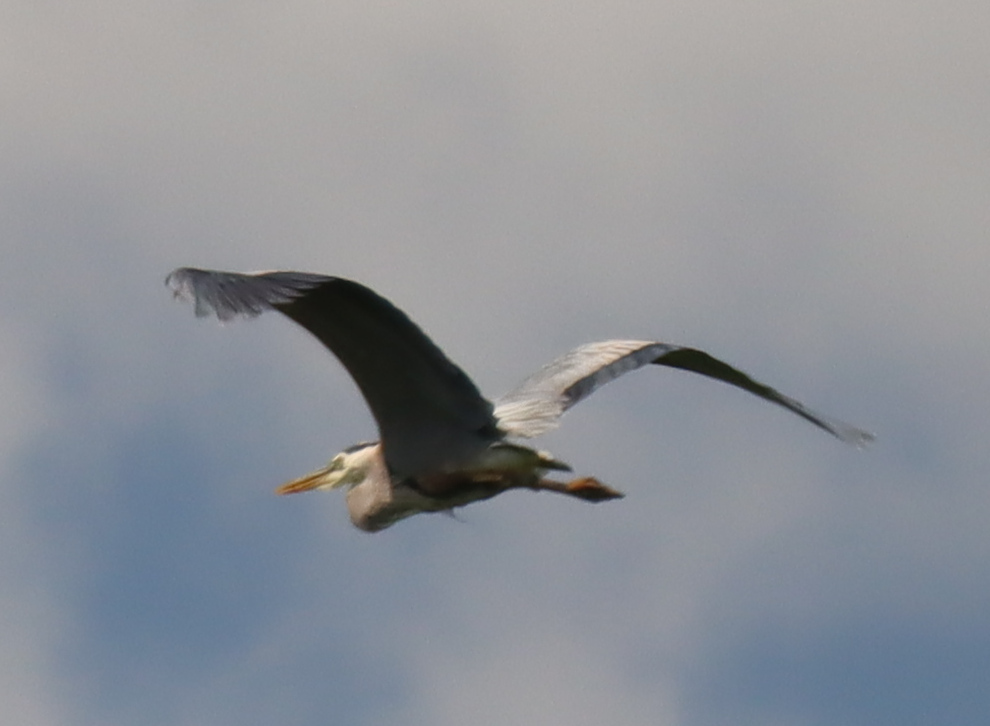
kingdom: Animalia
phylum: Chordata
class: Aves
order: Pelecaniformes
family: Ardeidae
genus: Ardea
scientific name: Ardea herodias
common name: Great blue heron
